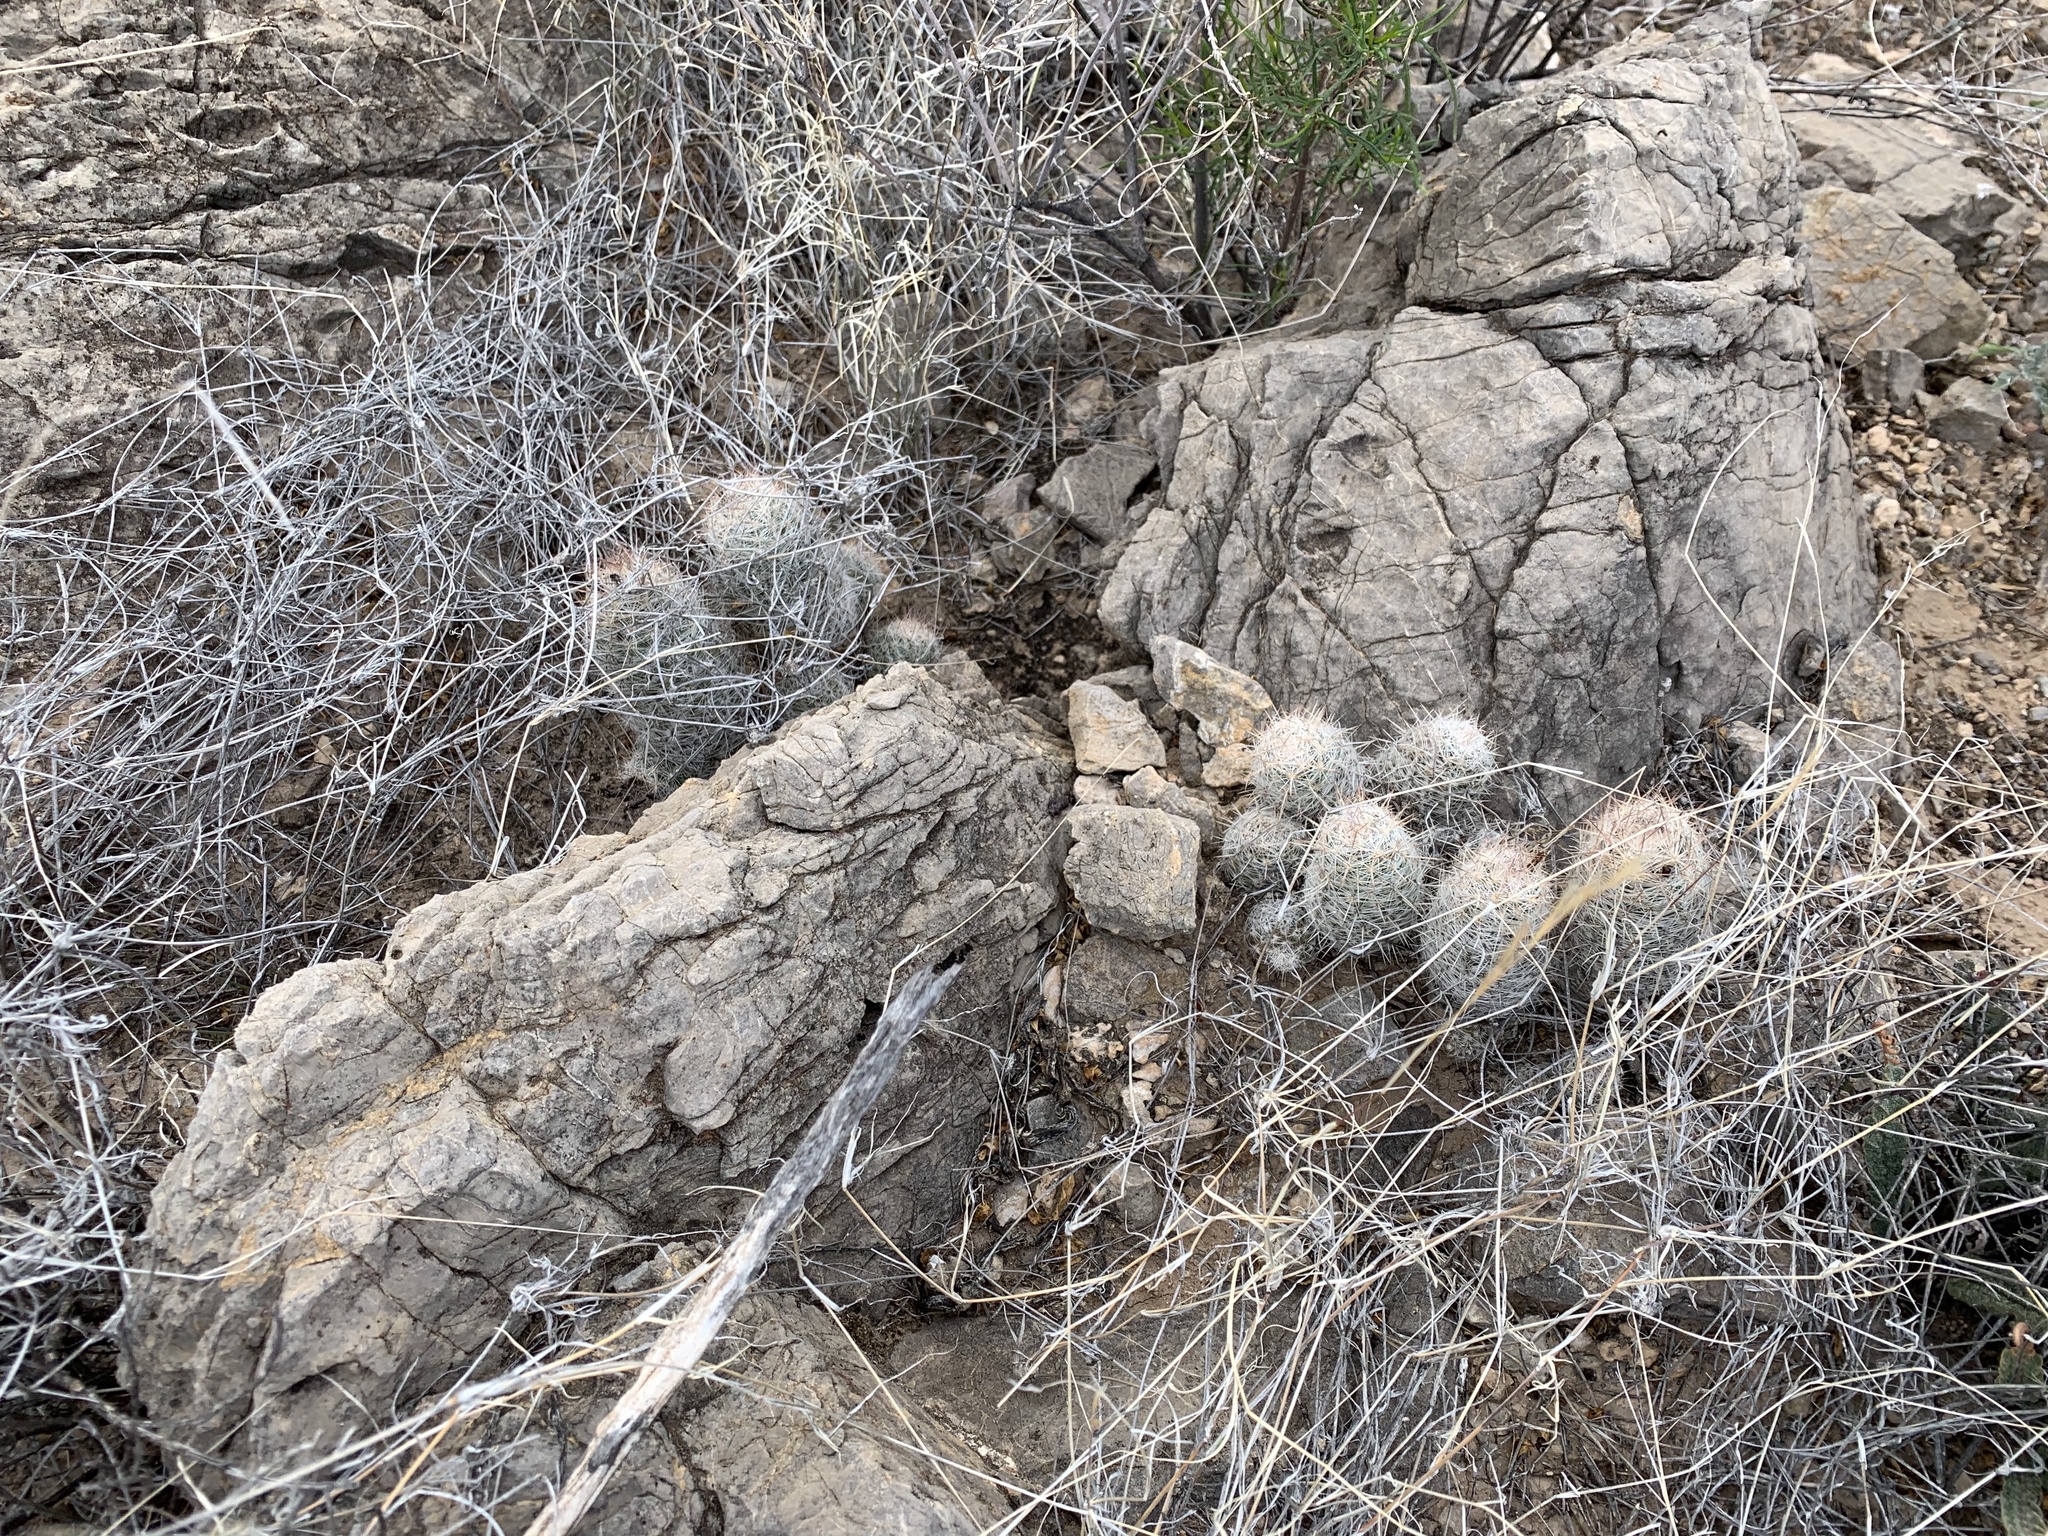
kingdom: Plantae
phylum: Tracheophyta
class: Magnoliopsida
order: Caryophyllales
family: Cactaceae
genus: Pelecyphora
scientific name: Pelecyphora tuberculosa
